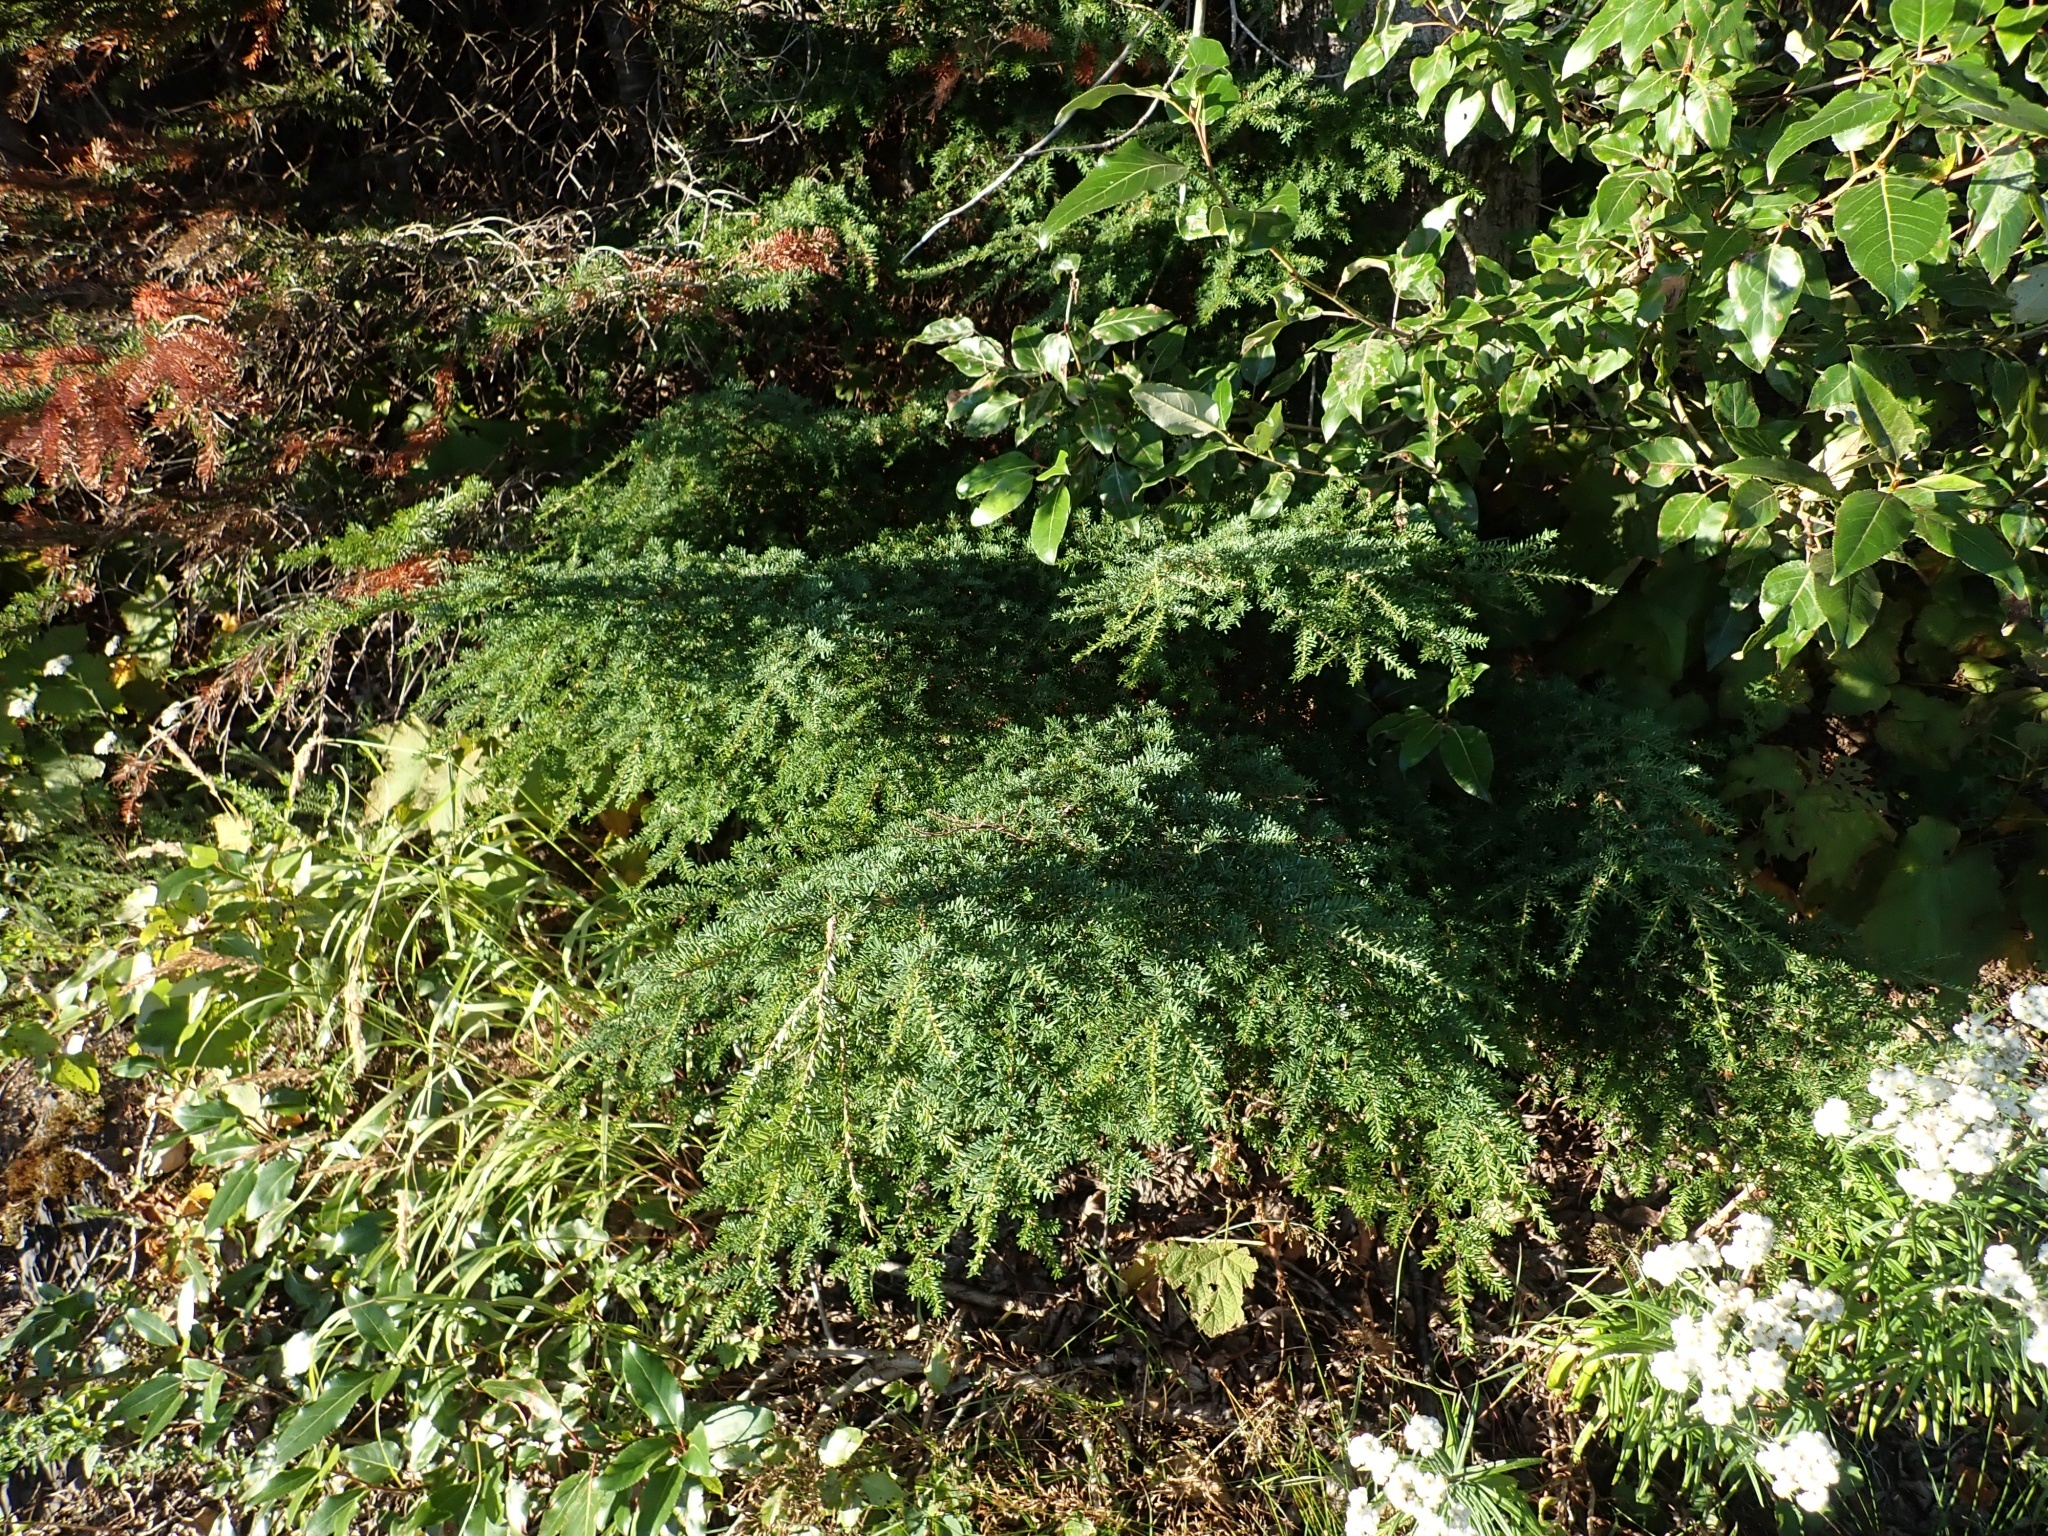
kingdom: Plantae
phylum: Tracheophyta
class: Pinopsida
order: Pinales
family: Pinaceae
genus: Tsuga
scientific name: Tsuga heterophylla
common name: Western hemlock
